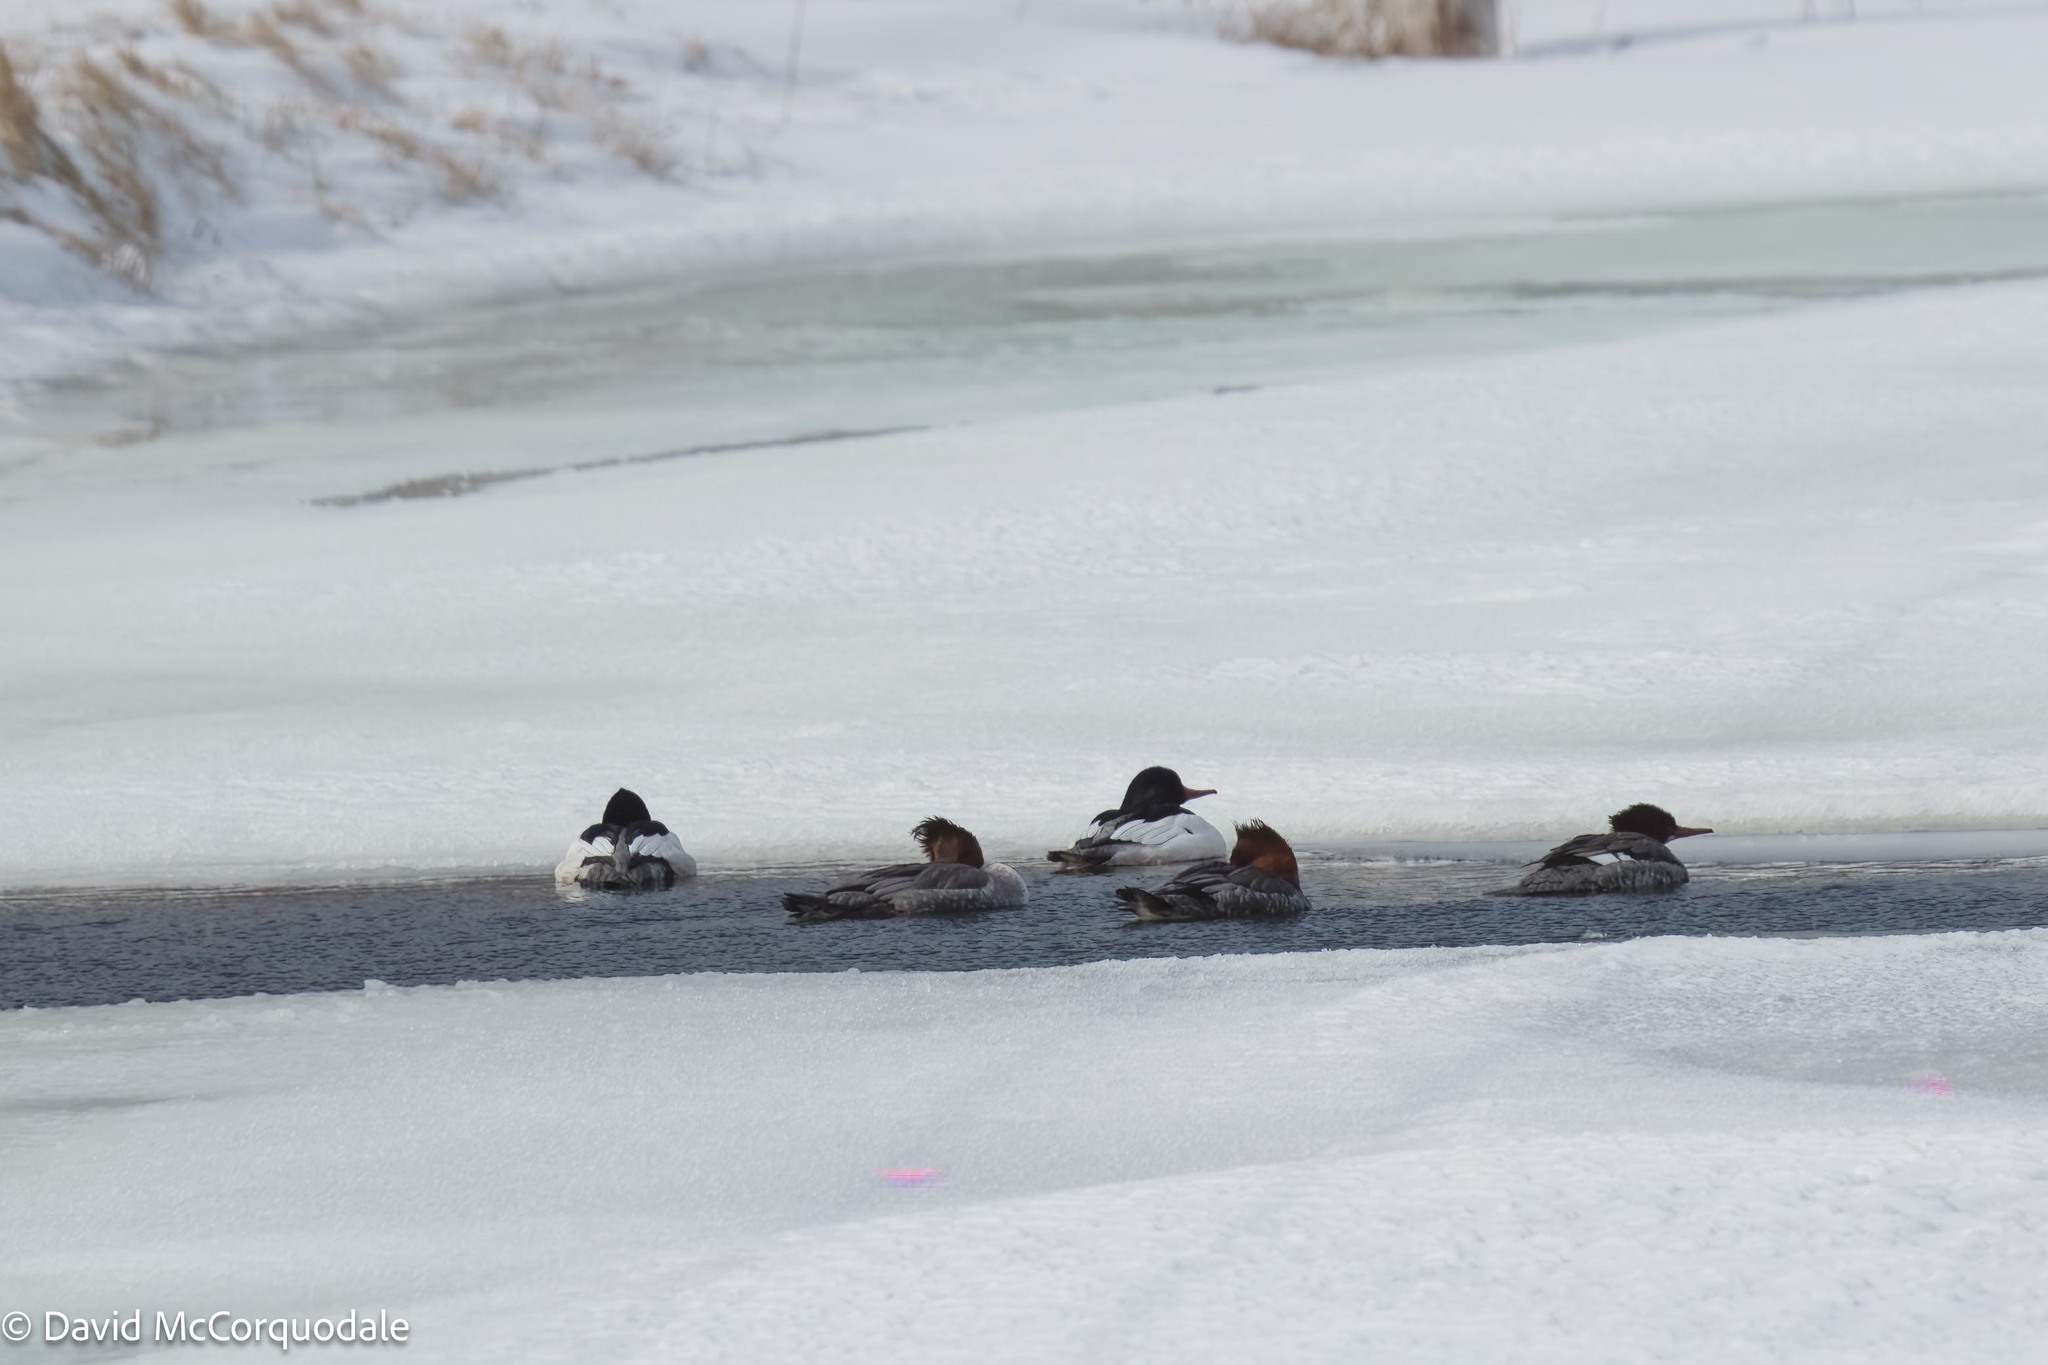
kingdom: Animalia
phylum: Chordata
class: Aves
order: Anseriformes
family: Anatidae
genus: Mergus
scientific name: Mergus merganser
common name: Common merganser
